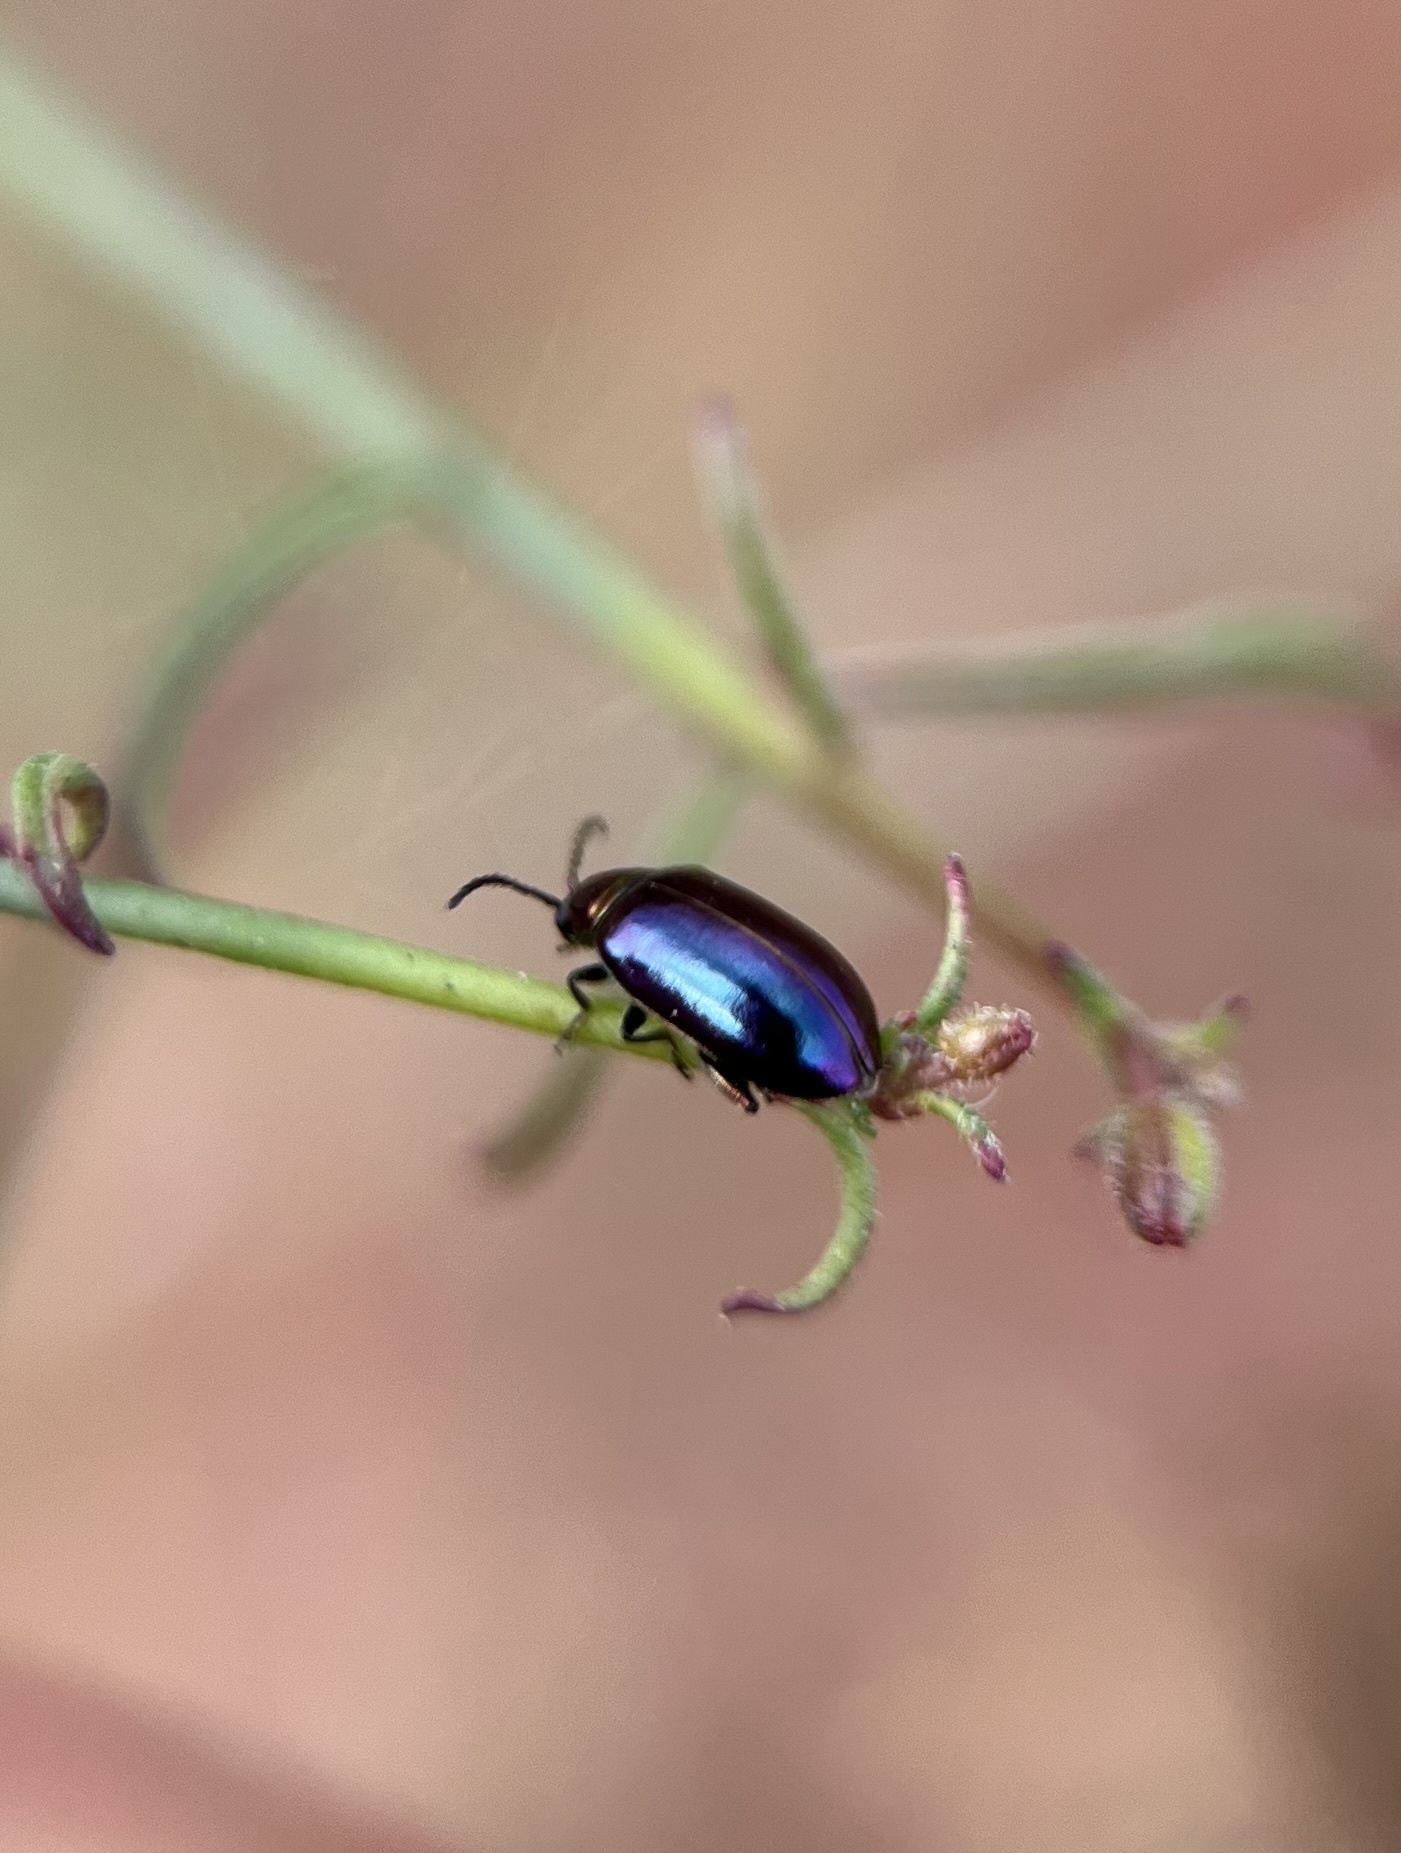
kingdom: Animalia
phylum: Arthropoda
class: Insecta
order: Coleoptera
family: Chrysomelidae
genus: Altica
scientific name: Altica torquata
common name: Leaf beetle
